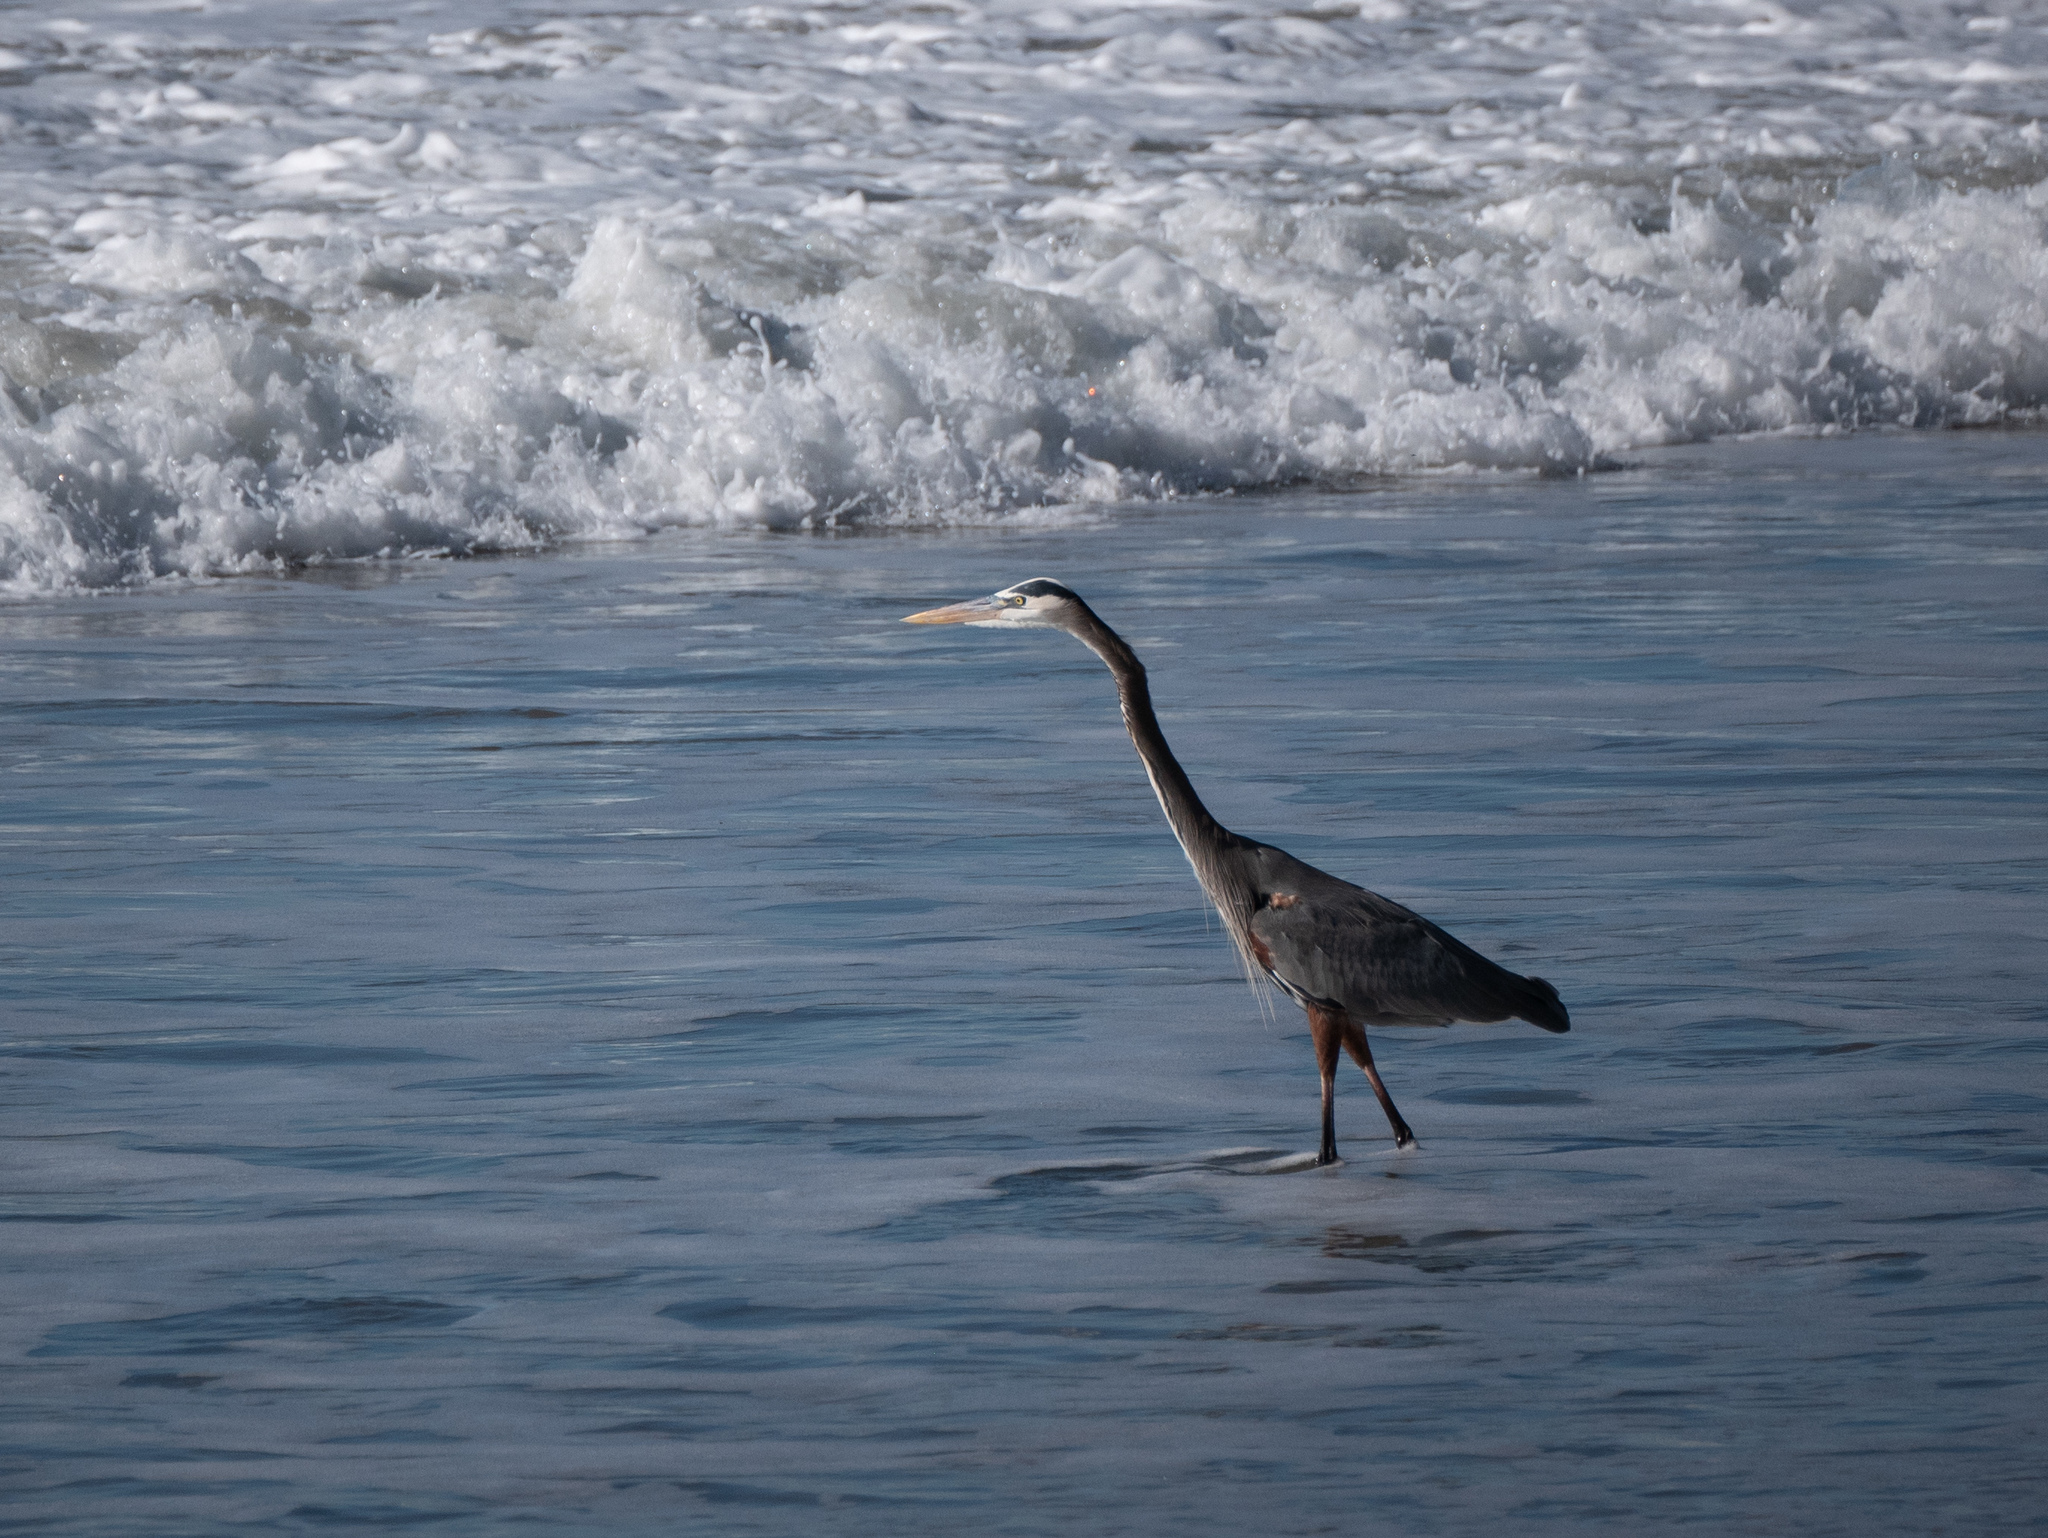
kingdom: Animalia
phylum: Chordata
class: Aves
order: Pelecaniformes
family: Ardeidae
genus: Ardea
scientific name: Ardea herodias
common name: Great blue heron
